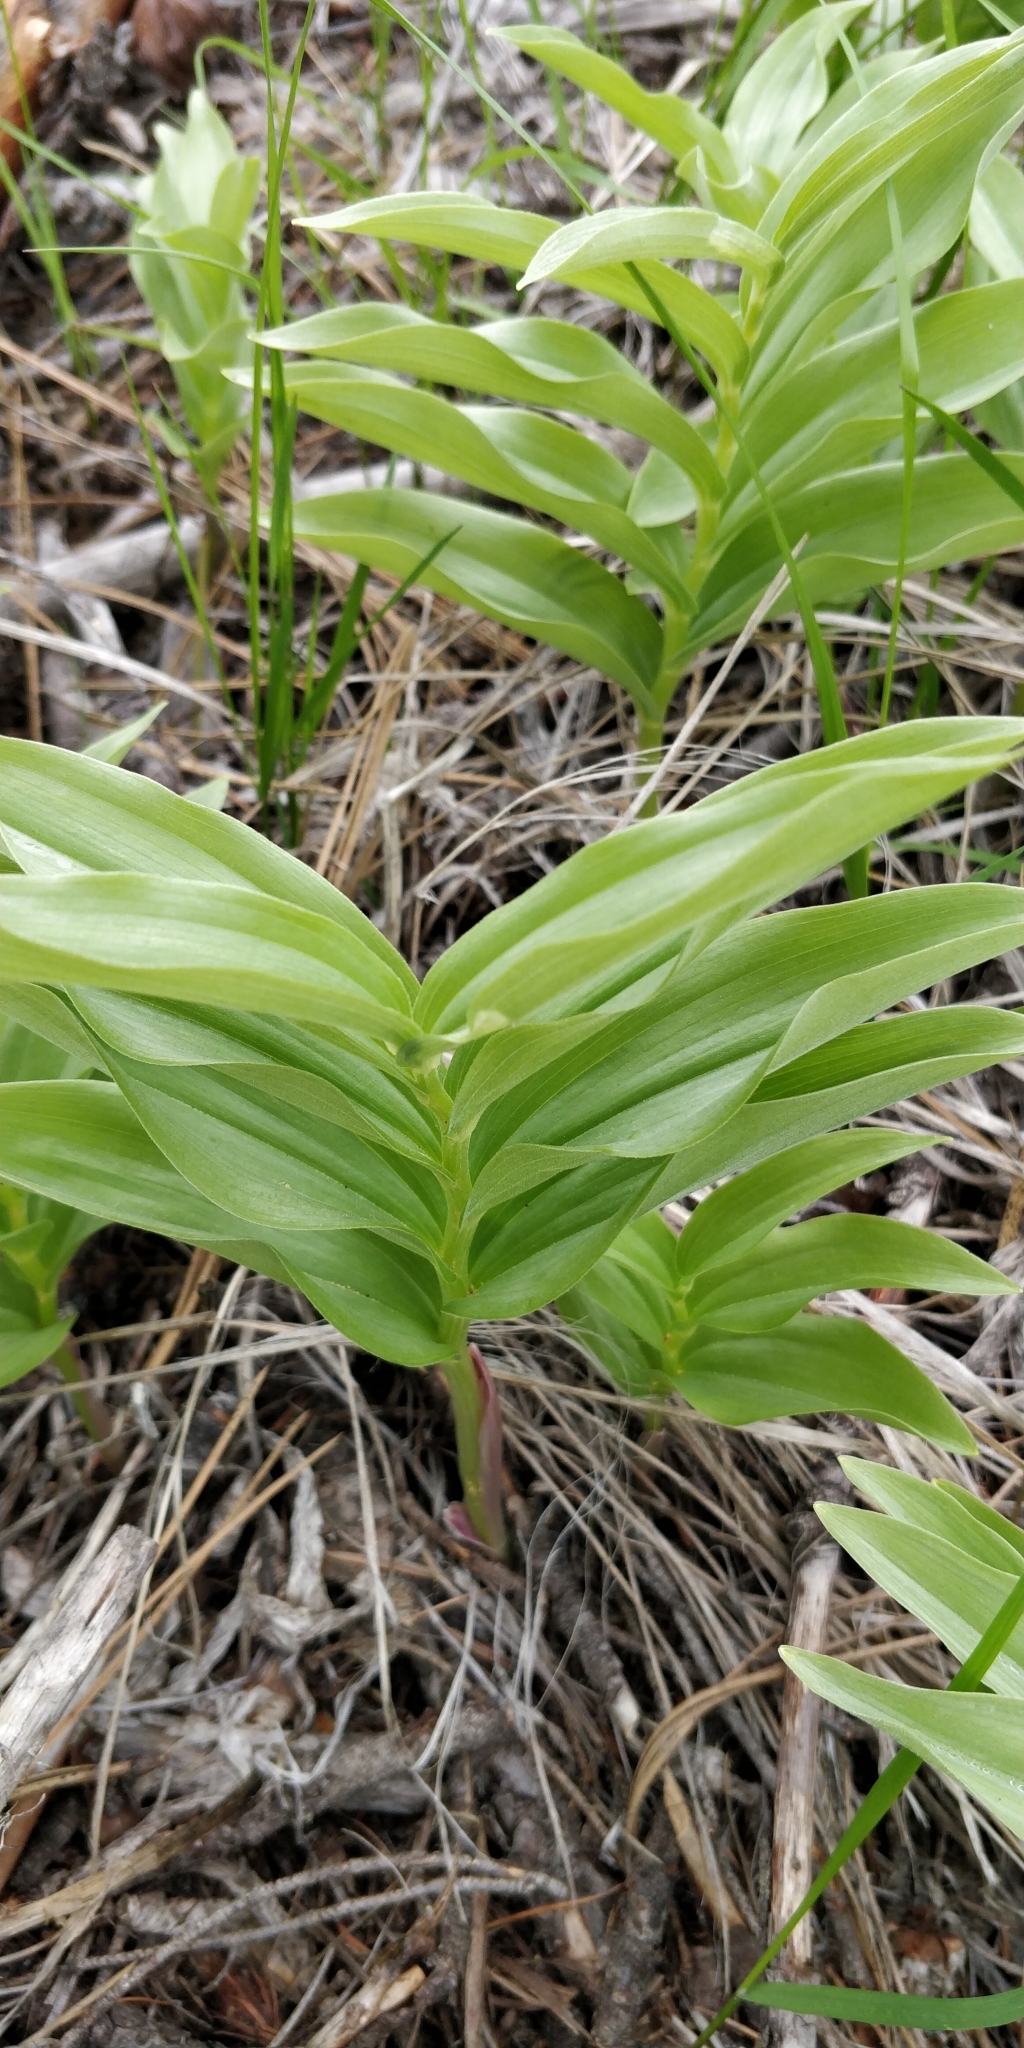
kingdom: Plantae
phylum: Tracheophyta
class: Liliopsida
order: Asparagales
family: Asparagaceae
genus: Maianthemum
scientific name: Maianthemum racemosum
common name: False spikenard
